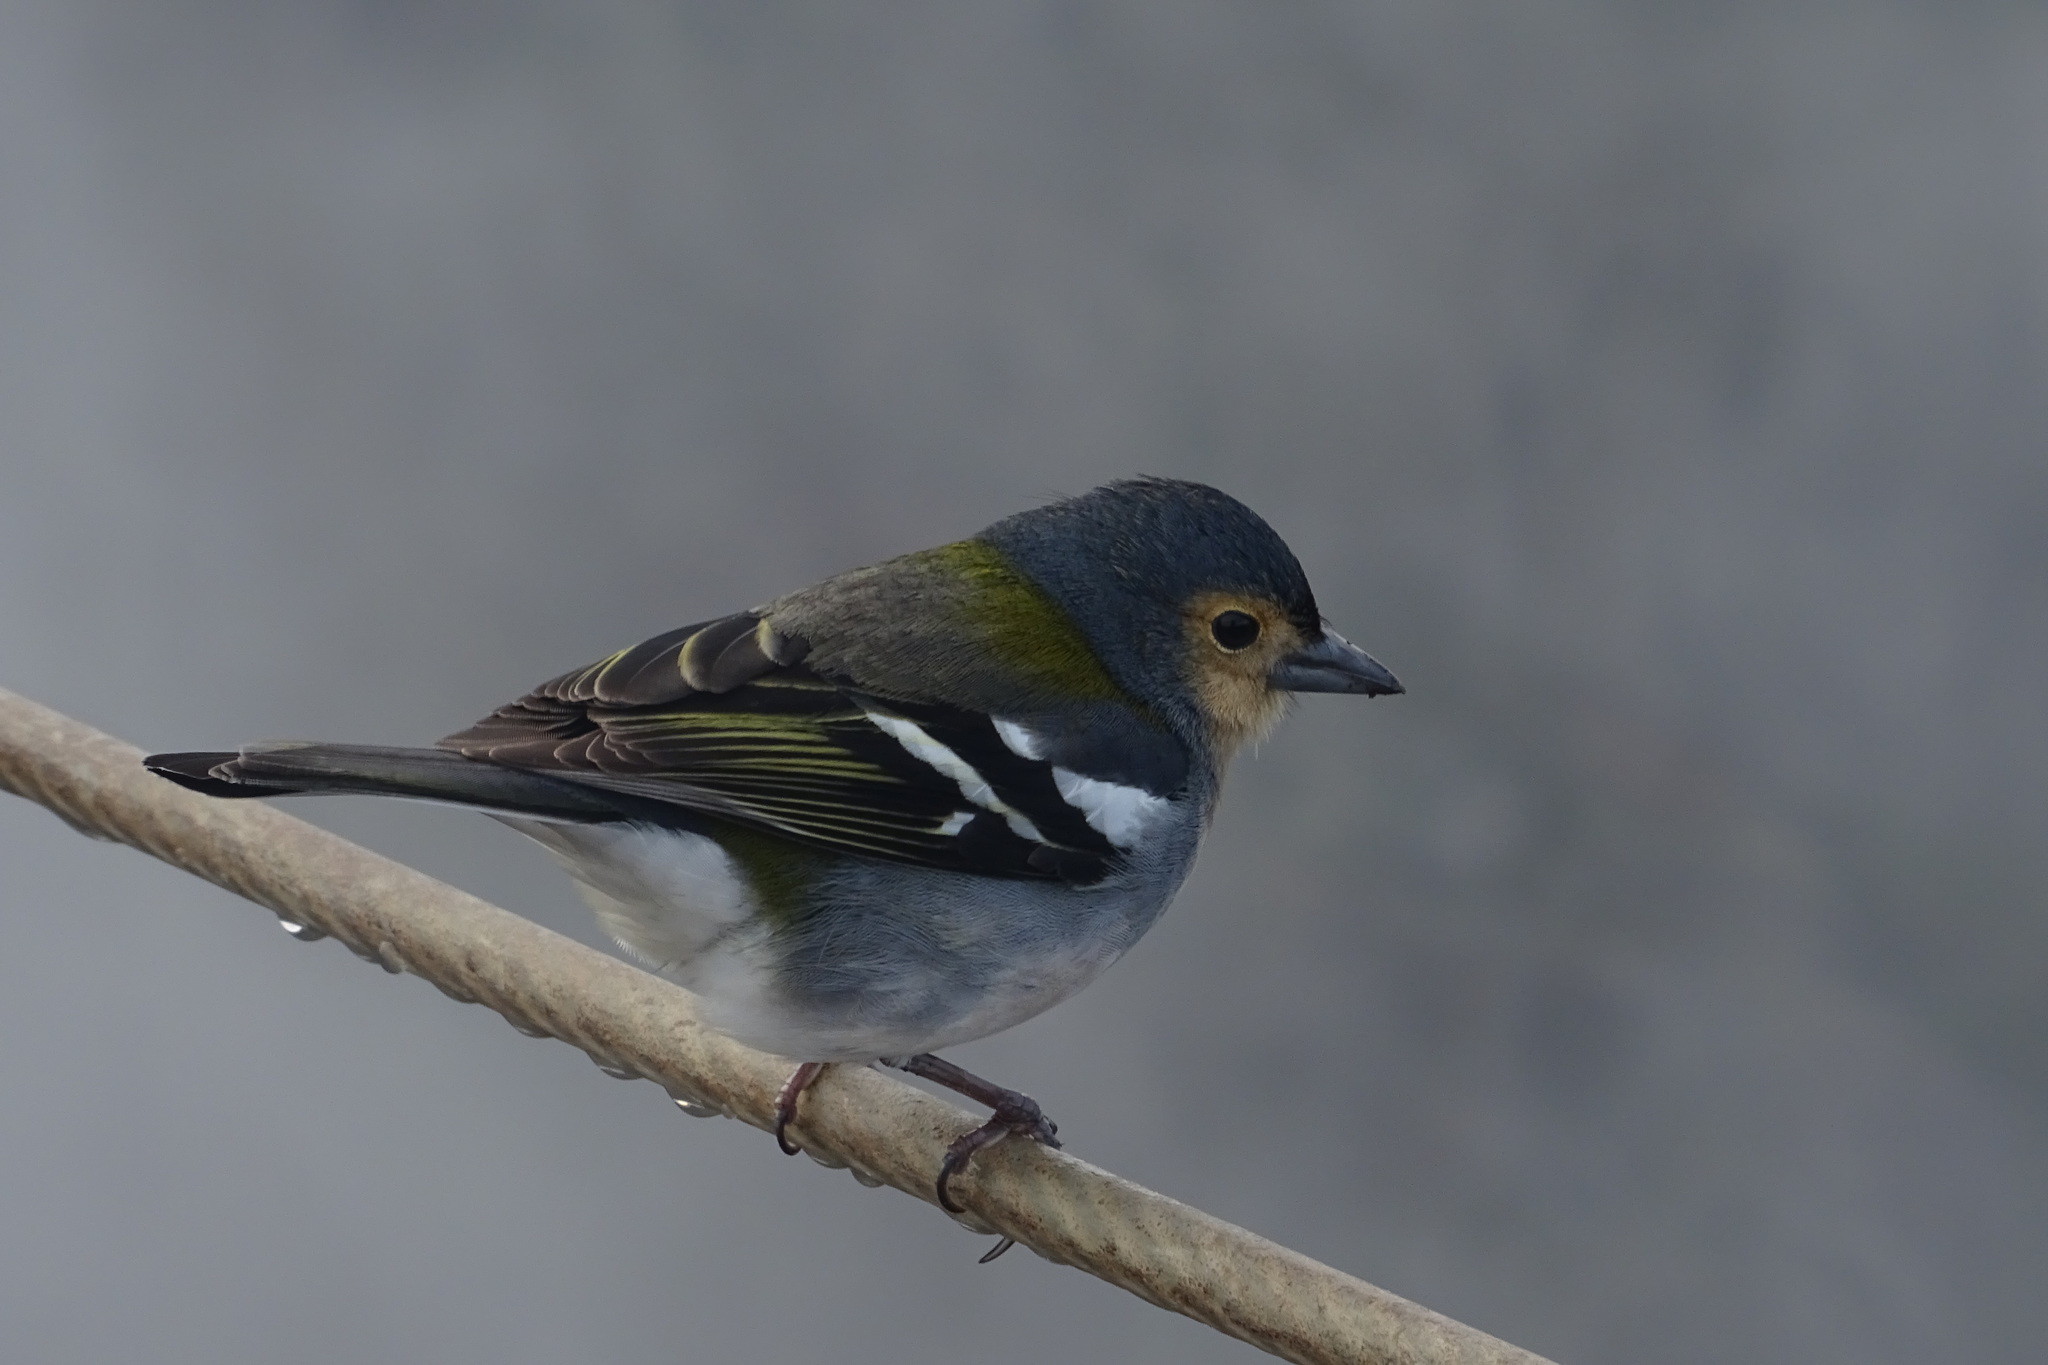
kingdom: Animalia
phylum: Chordata
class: Aves
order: Passeriformes
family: Fringillidae
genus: Fringilla
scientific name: Fringilla maderensis
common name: Madeira chaffinch
